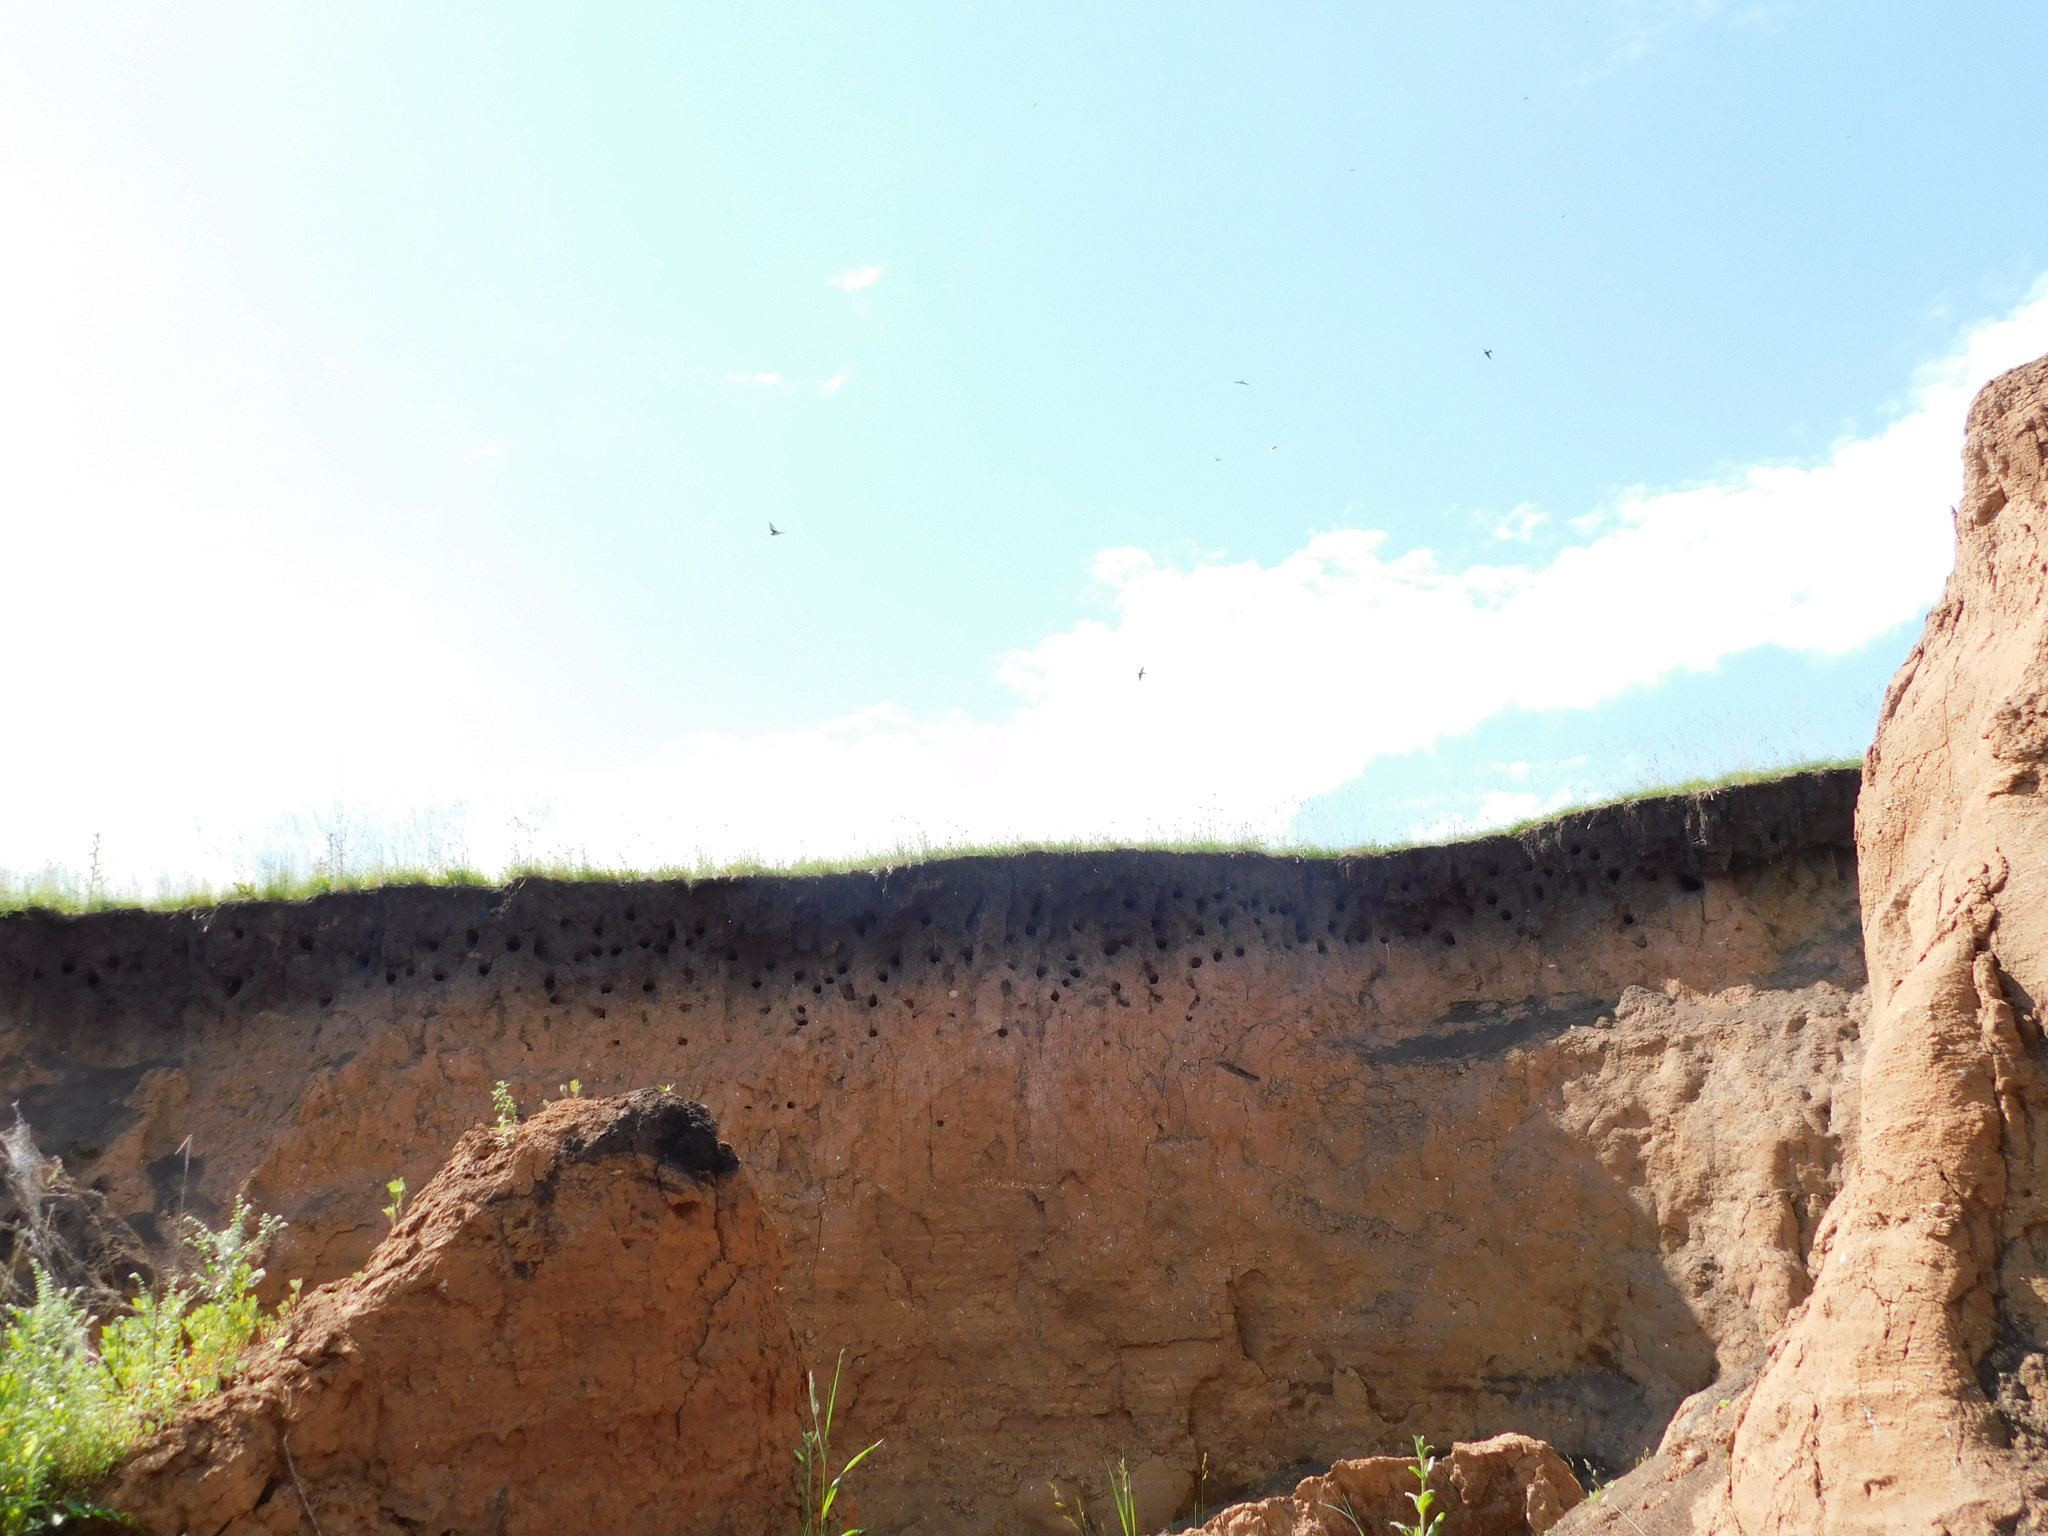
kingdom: Animalia
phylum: Chordata
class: Aves
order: Passeriformes
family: Hirundinidae
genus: Riparia
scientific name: Riparia riparia
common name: Sand martin
